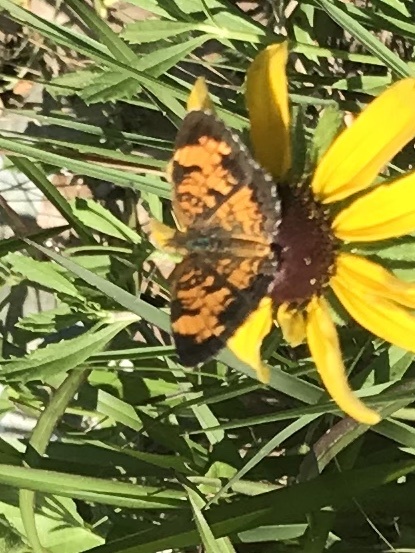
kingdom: Animalia
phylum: Arthropoda
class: Insecta
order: Lepidoptera
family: Nymphalidae
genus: Phyciodes
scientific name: Phyciodes tharos
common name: Pearl crescent
